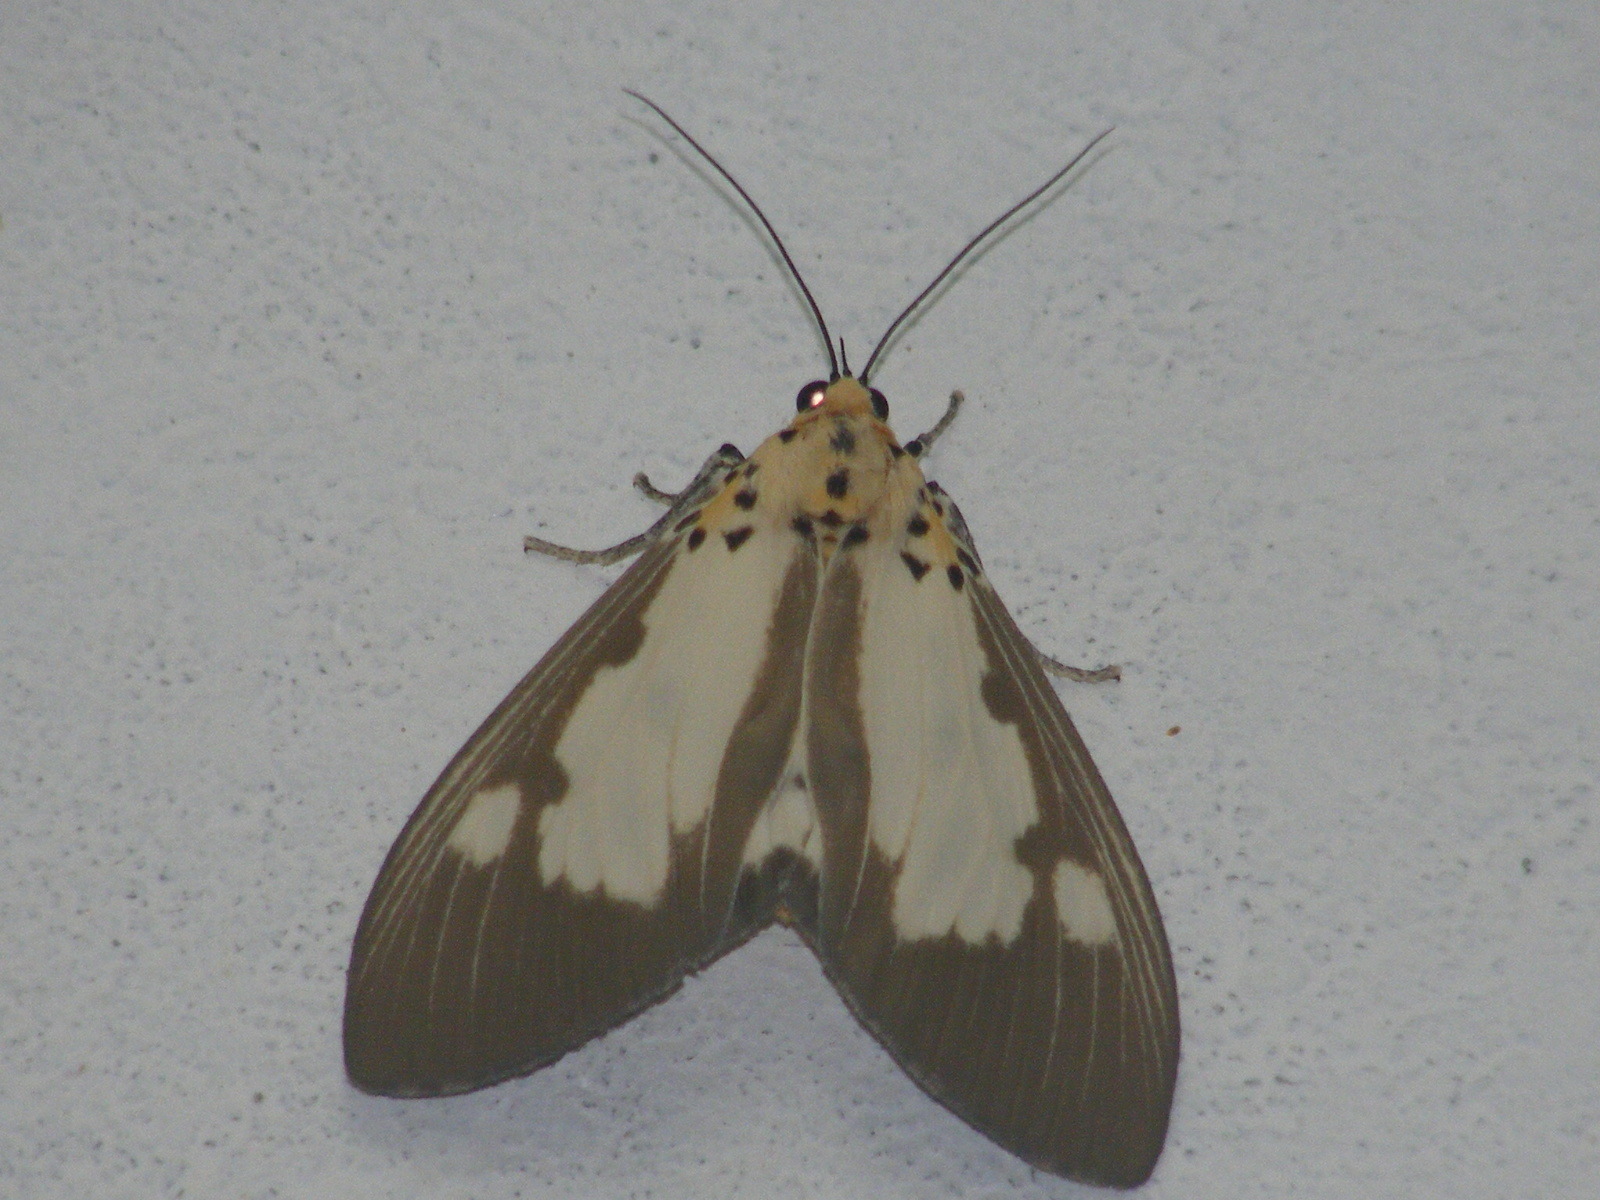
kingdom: Animalia
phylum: Arthropoda
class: Insecta
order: Lepidoptera
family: Erebidae
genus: Asota
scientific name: Asota plana
